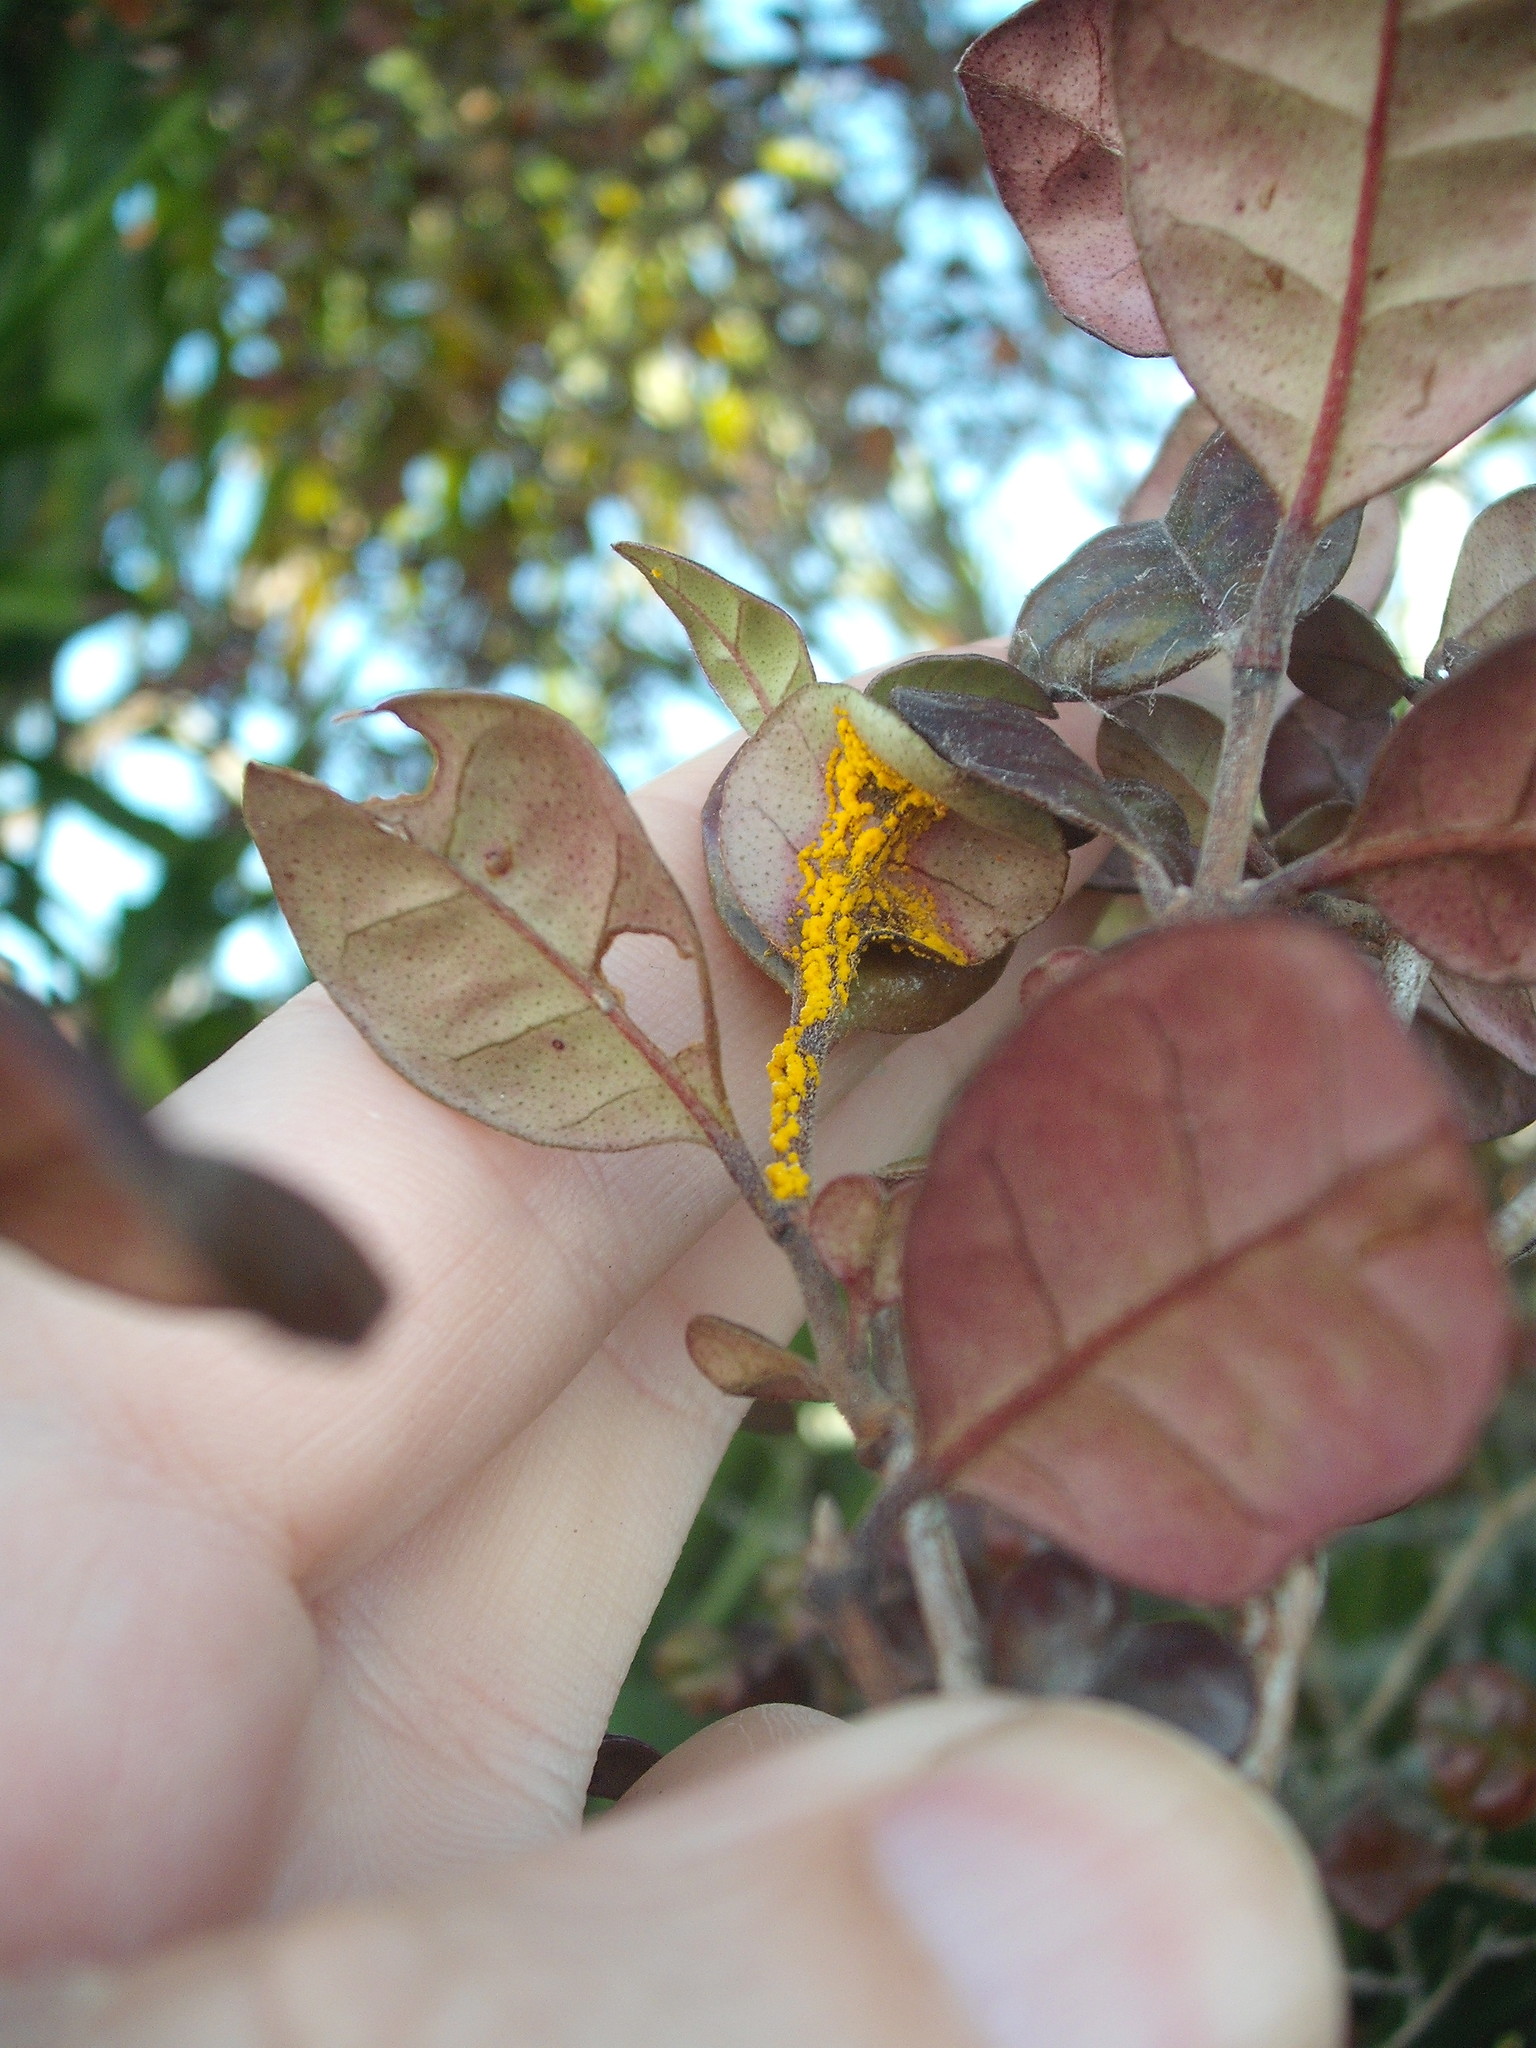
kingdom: Fungi
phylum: Basidiomycota
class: Pucciniomycetes
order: Pucciniales
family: Sphaerophragmiaceae
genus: Austropuccinia
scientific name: Austropuccinia psidii
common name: Myrtle rust
